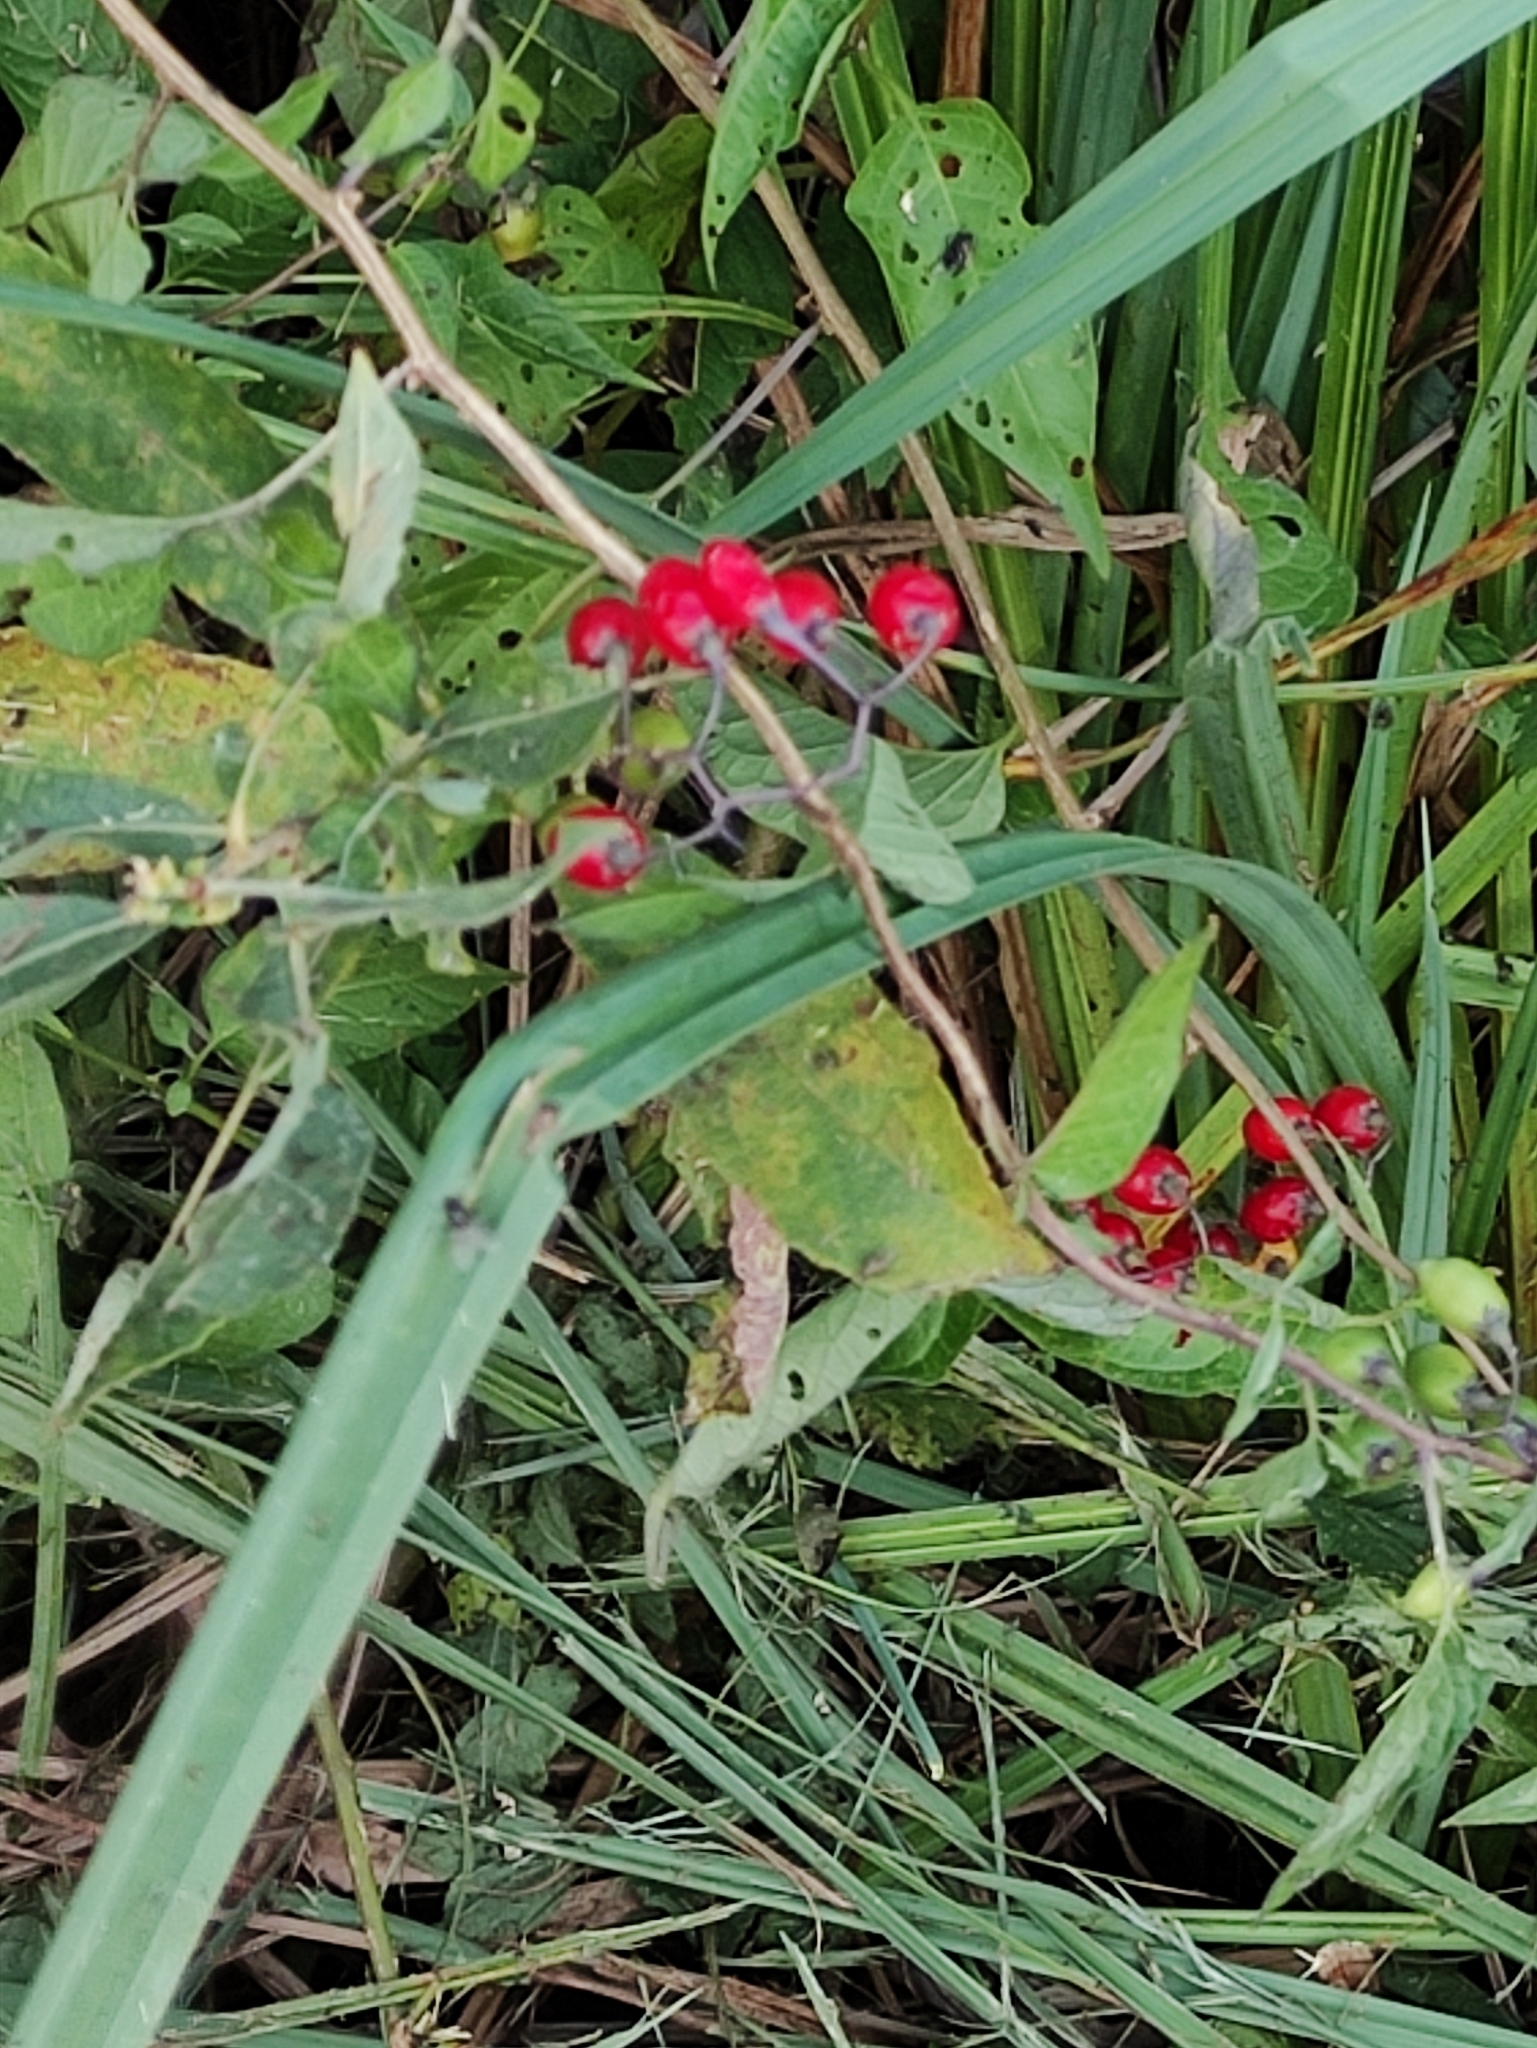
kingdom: Plantae
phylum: Tracheophyta
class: Magnoliopsida
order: Solanales
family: Solanaceae
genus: Solanum
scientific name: Solanum dulcamara
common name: Climbing nightshade
